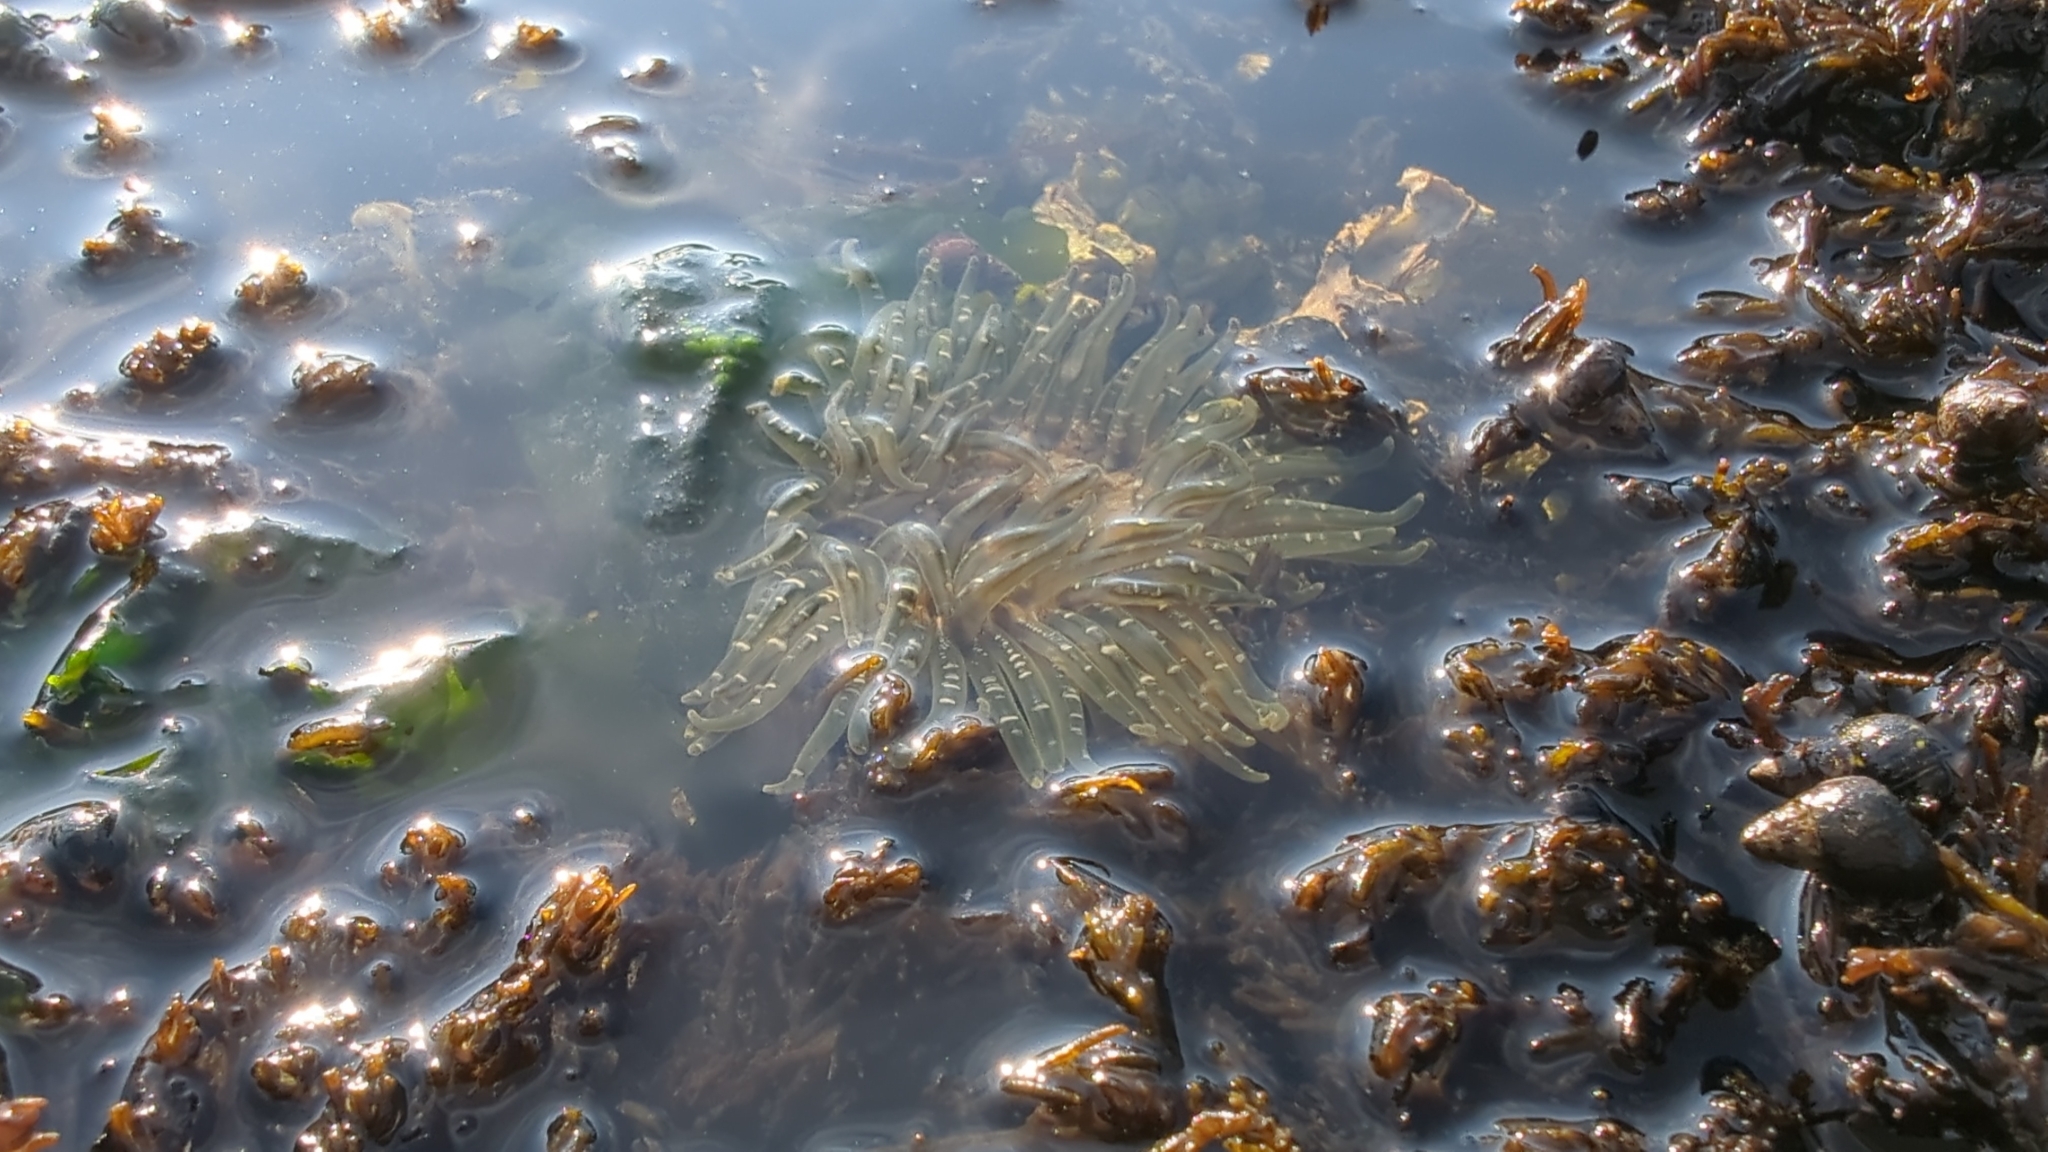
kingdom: Animalia
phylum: Cnidaria
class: Anthozoa
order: Actiniaria
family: Actiniidae
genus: Anthopleura
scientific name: Anthopleura artemisia
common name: Buried sea anemone
